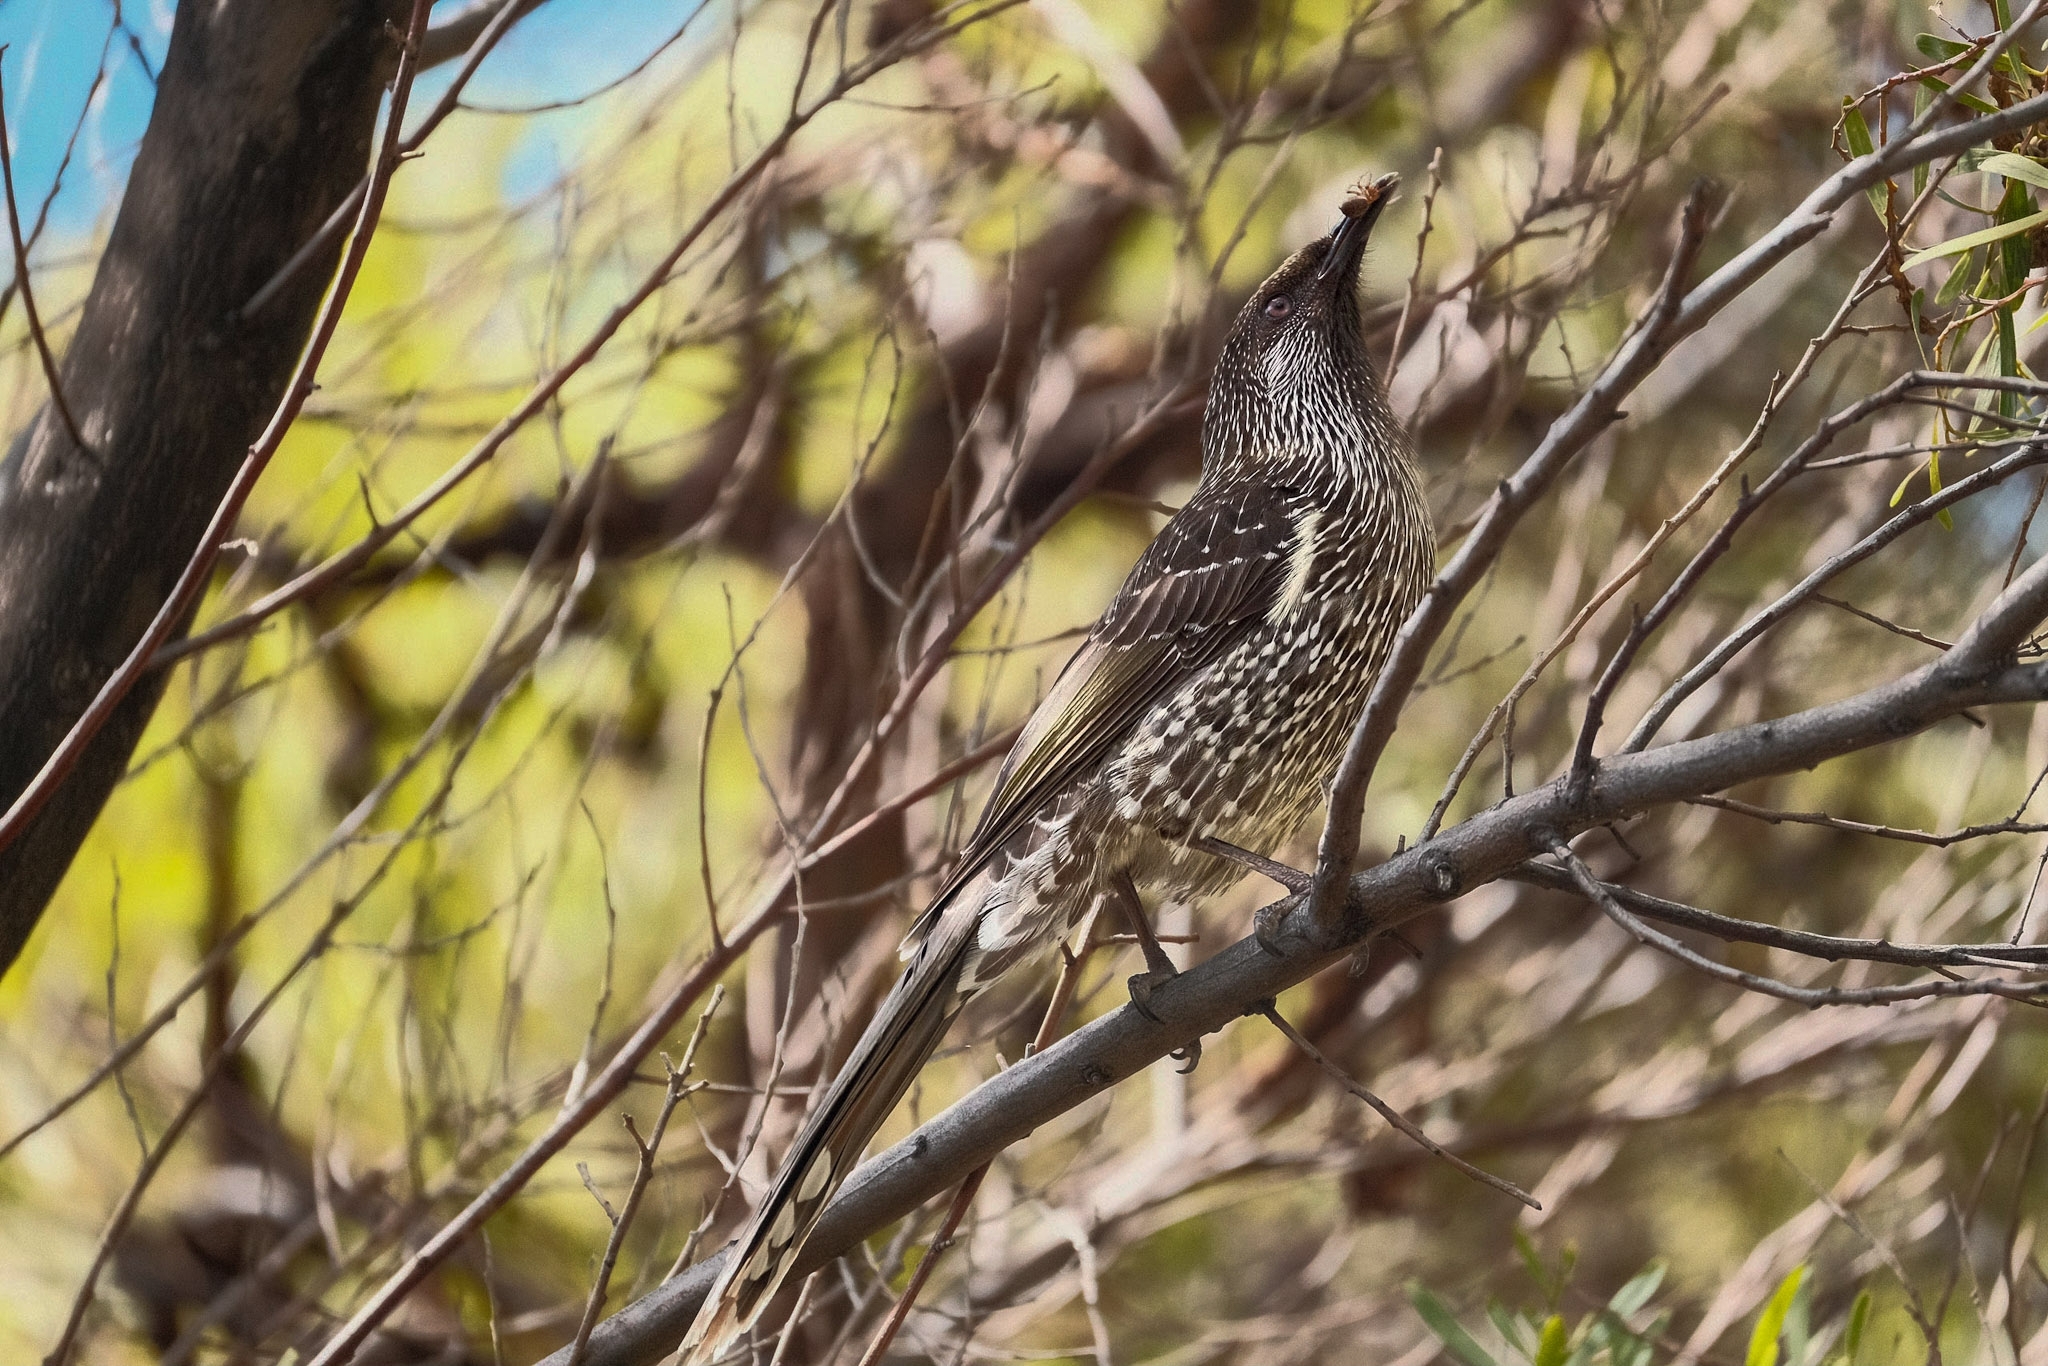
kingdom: Animalia
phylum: Chordata
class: Aves
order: Passeriformes
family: Meliphagidae
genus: Anthochaera
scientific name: Anthochaera chrysoptera
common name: Little wattlebird
